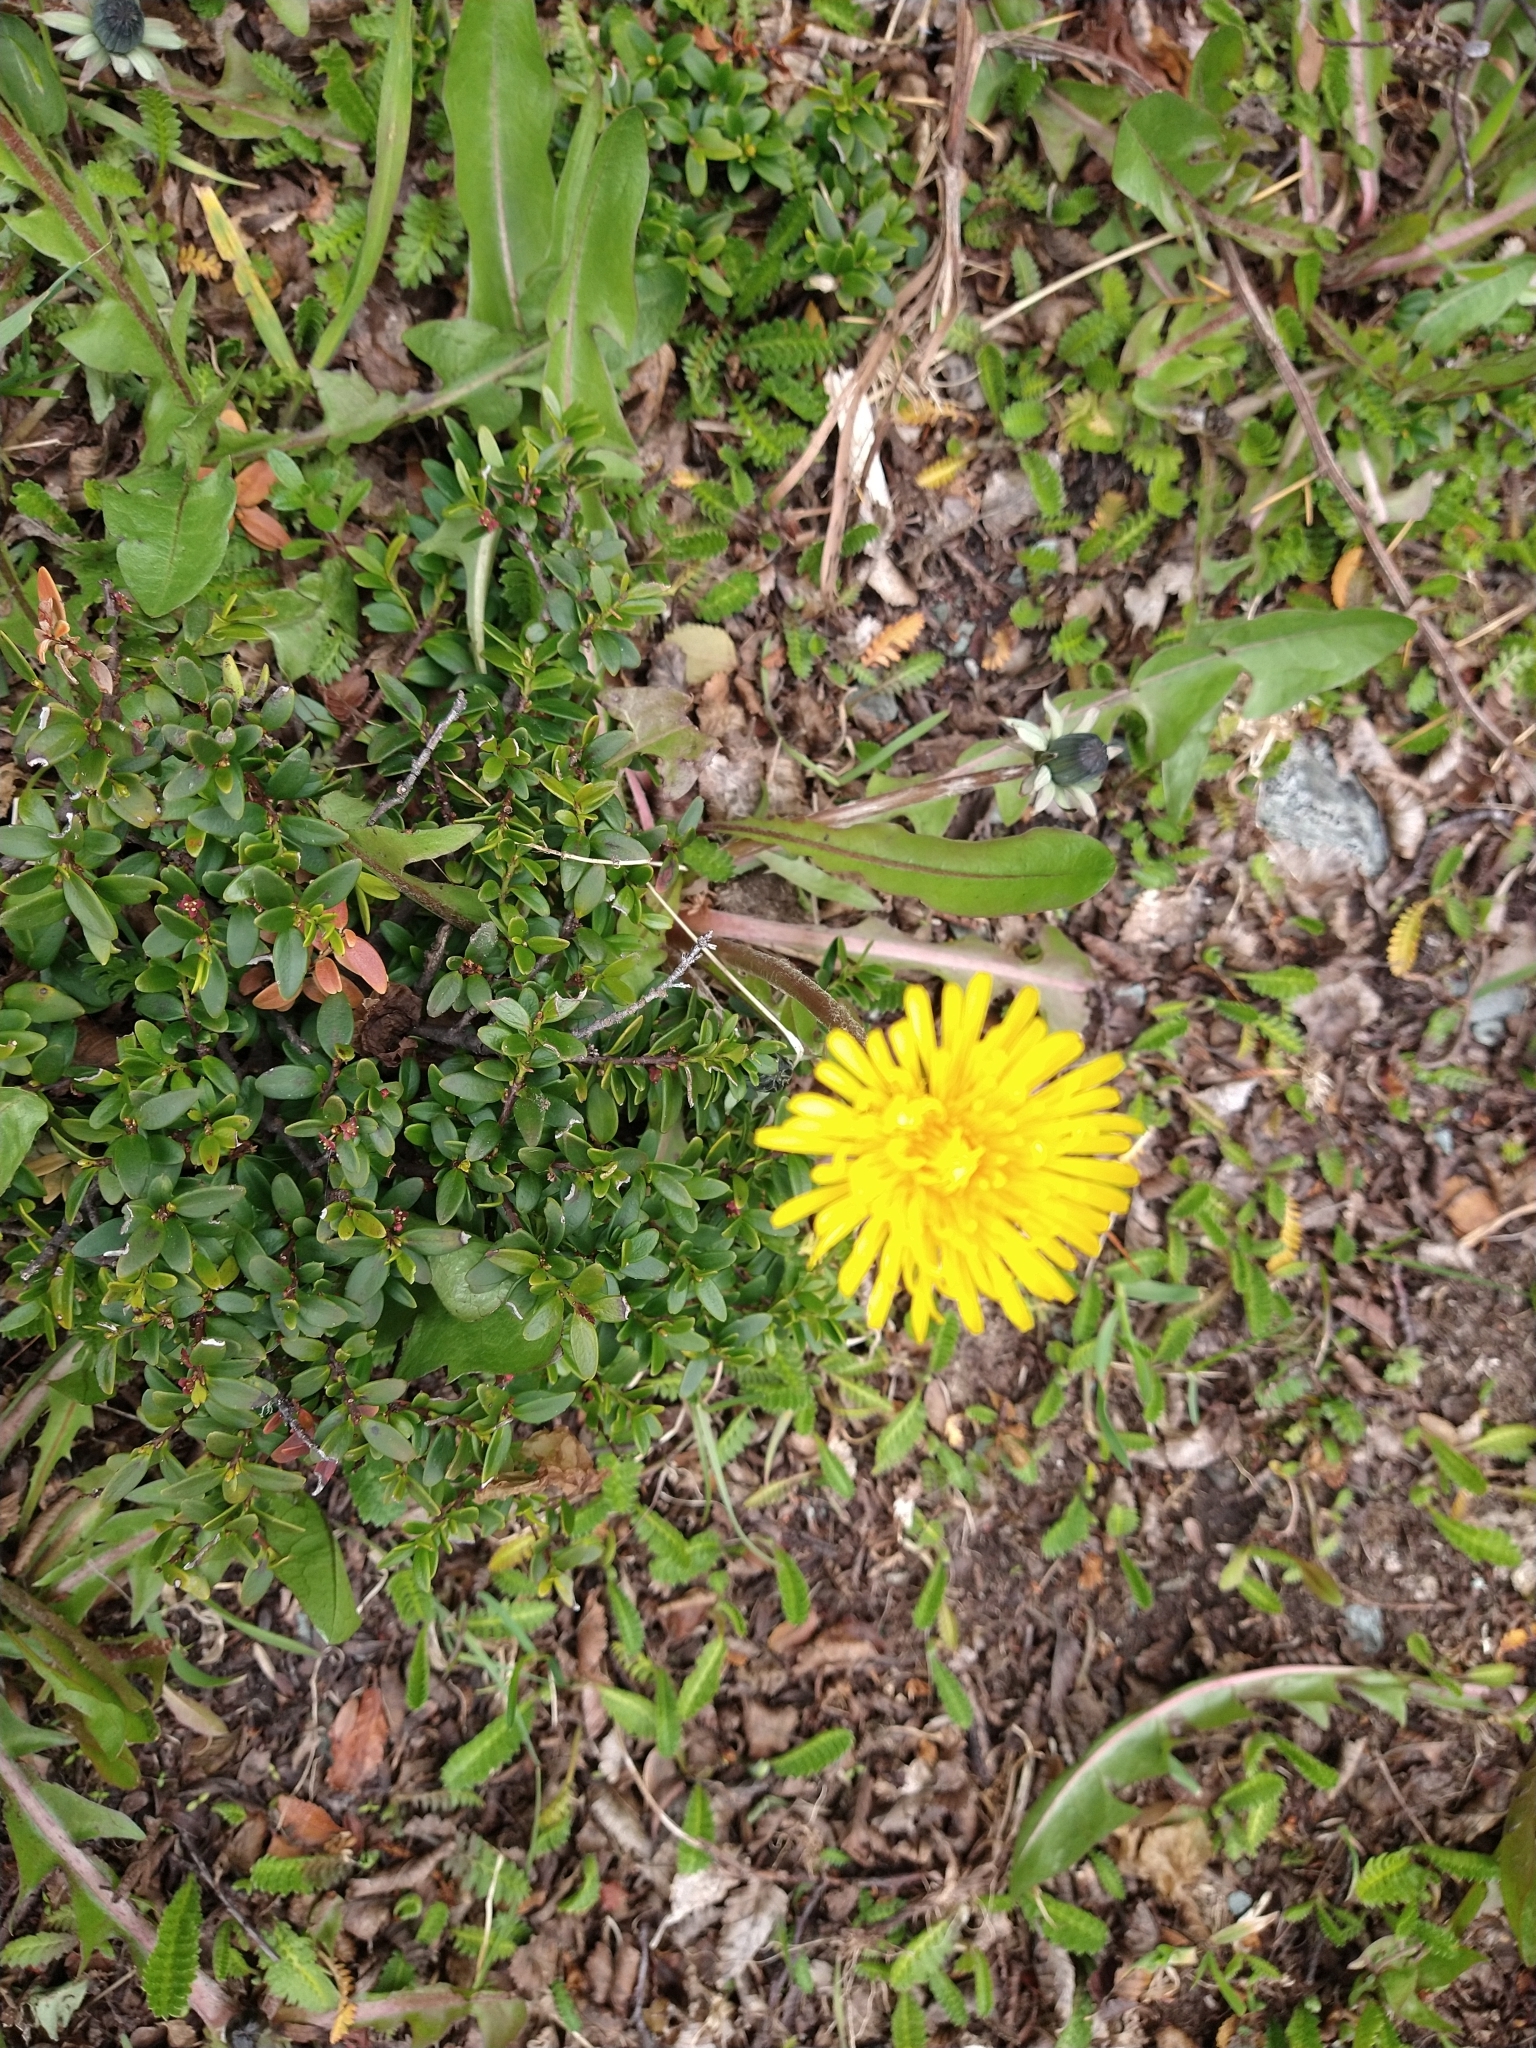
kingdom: Plantae
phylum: Tracheophyta
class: Magnoliopsida
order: Asterales
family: Asteraceae
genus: Taraxacum
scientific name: Taraxacum officinale
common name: Common dandelion
